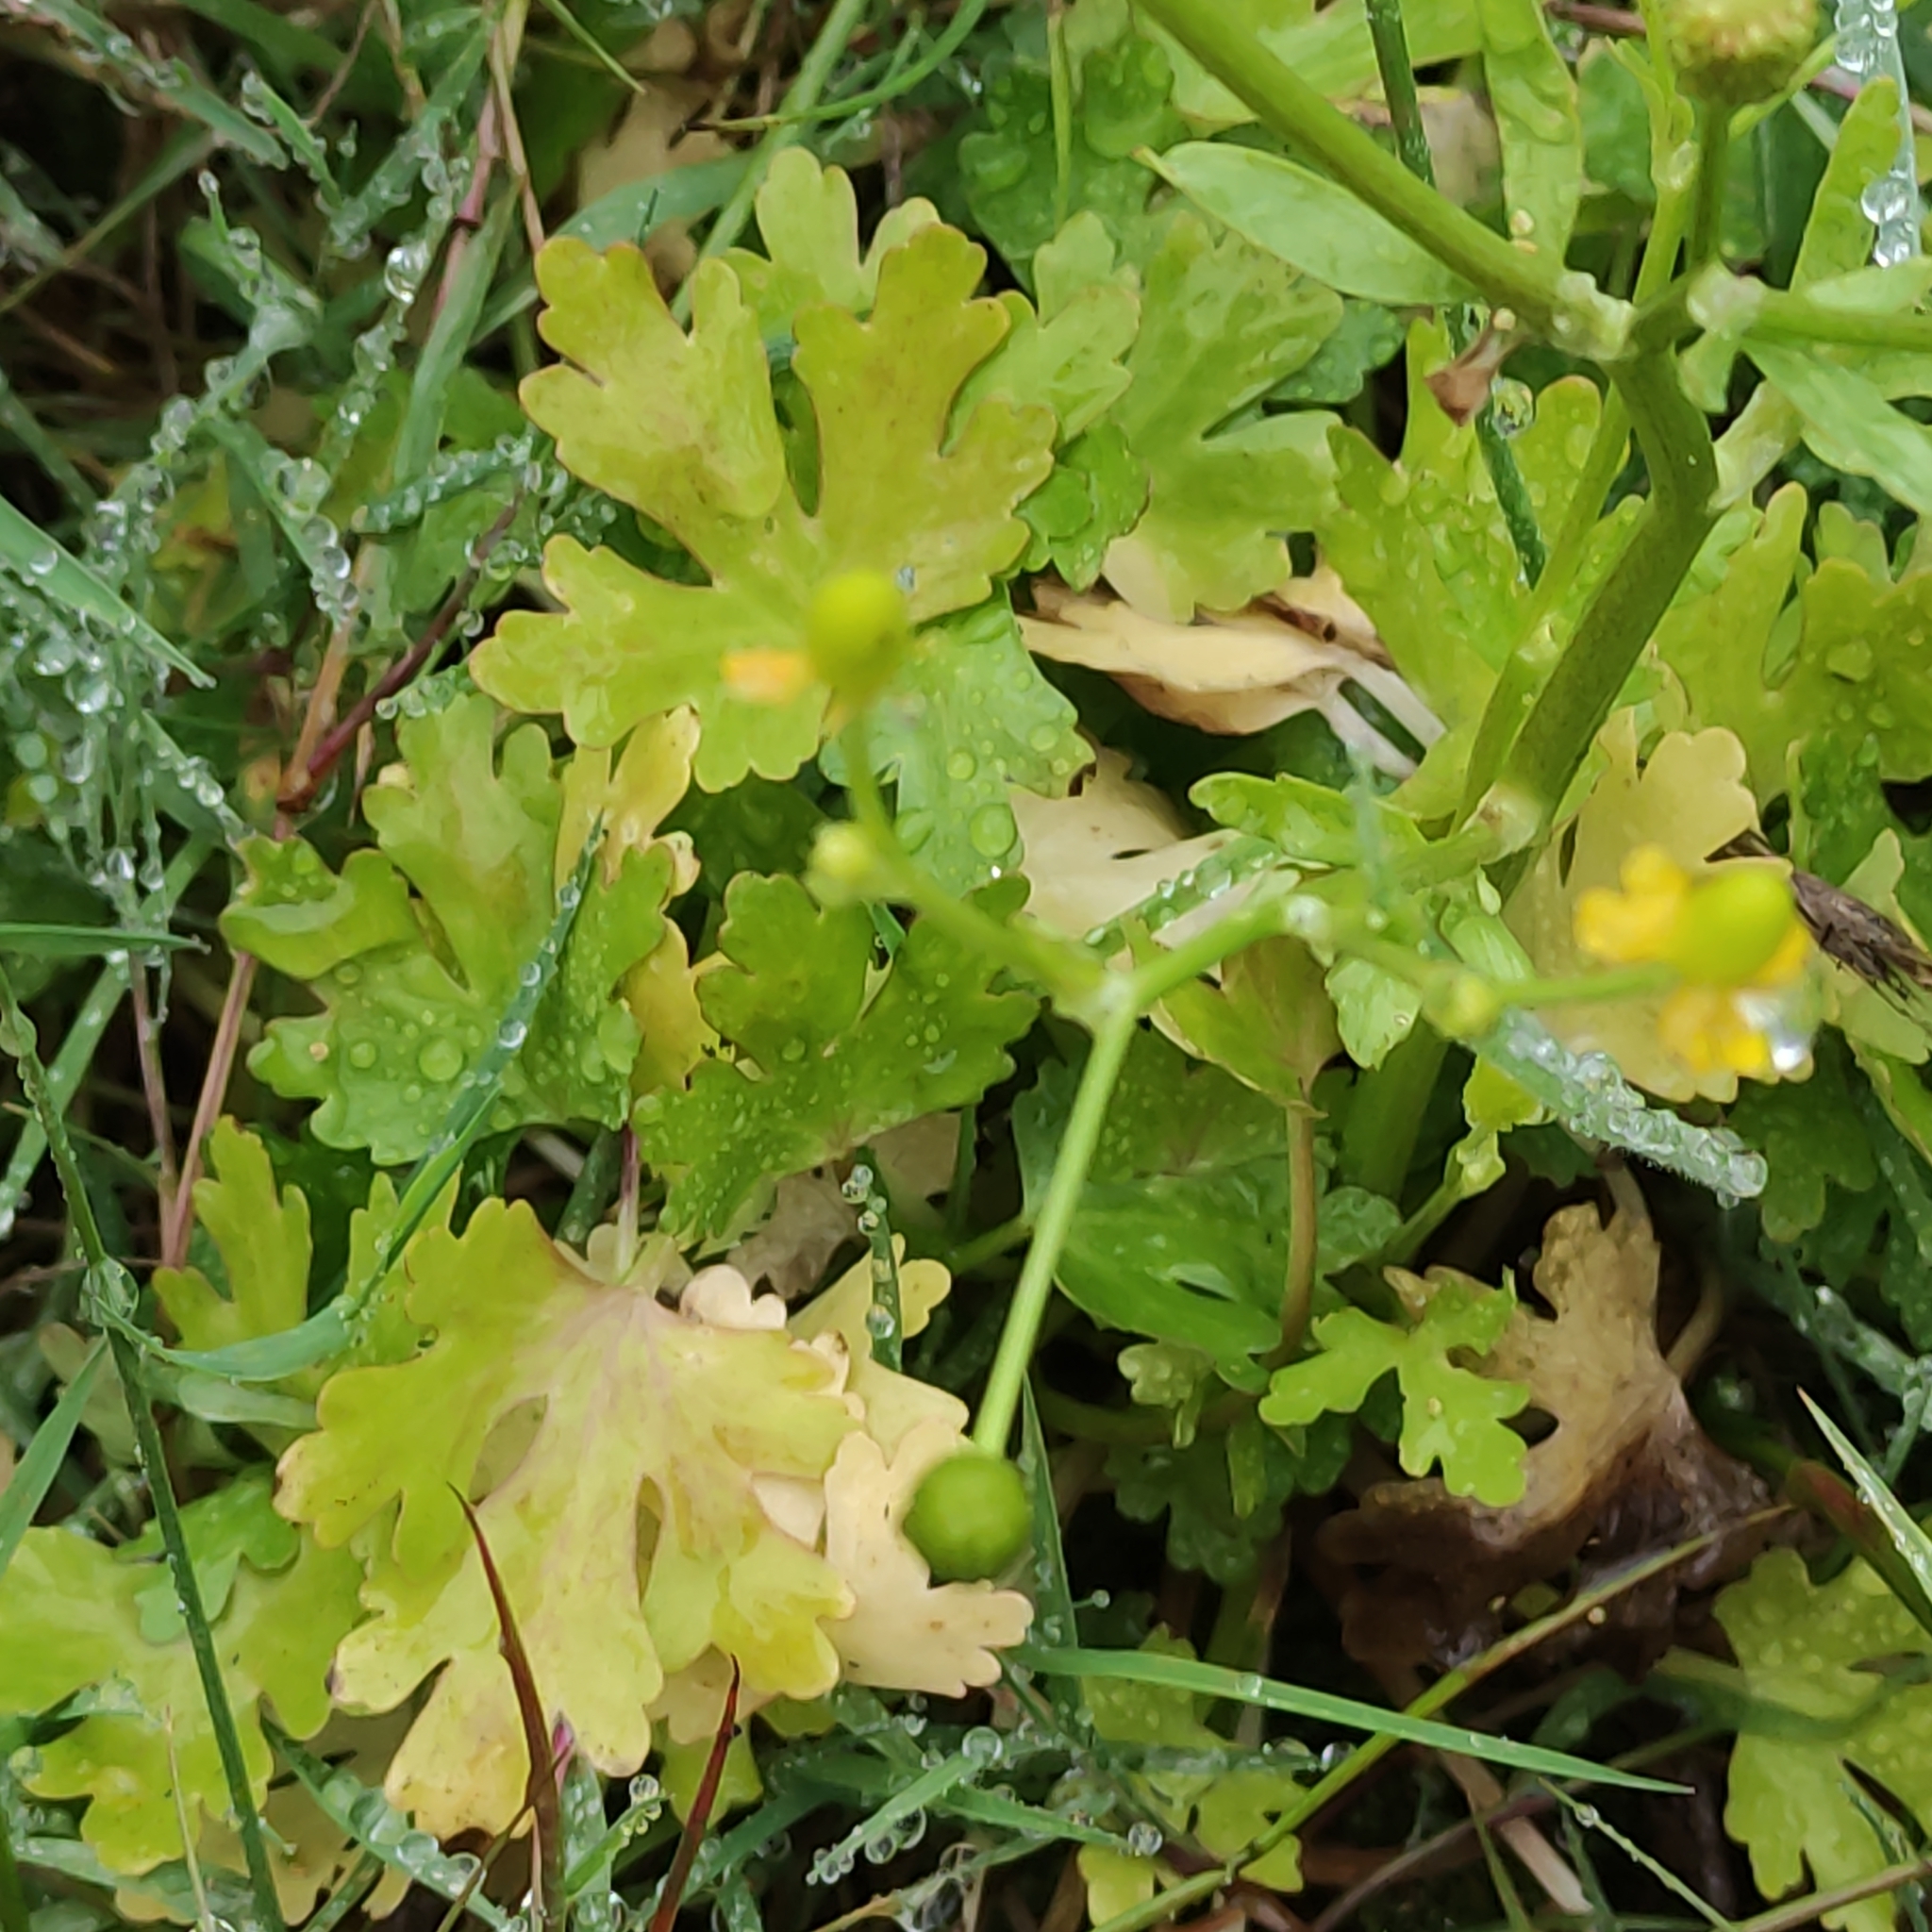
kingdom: Plantae
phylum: Tracheophyta
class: Magnoliopsida
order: Ranunculales
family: Ranunculaceae
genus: Ranunculus
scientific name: Ranunculus sceleratus
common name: Celery-leaved buttercup
